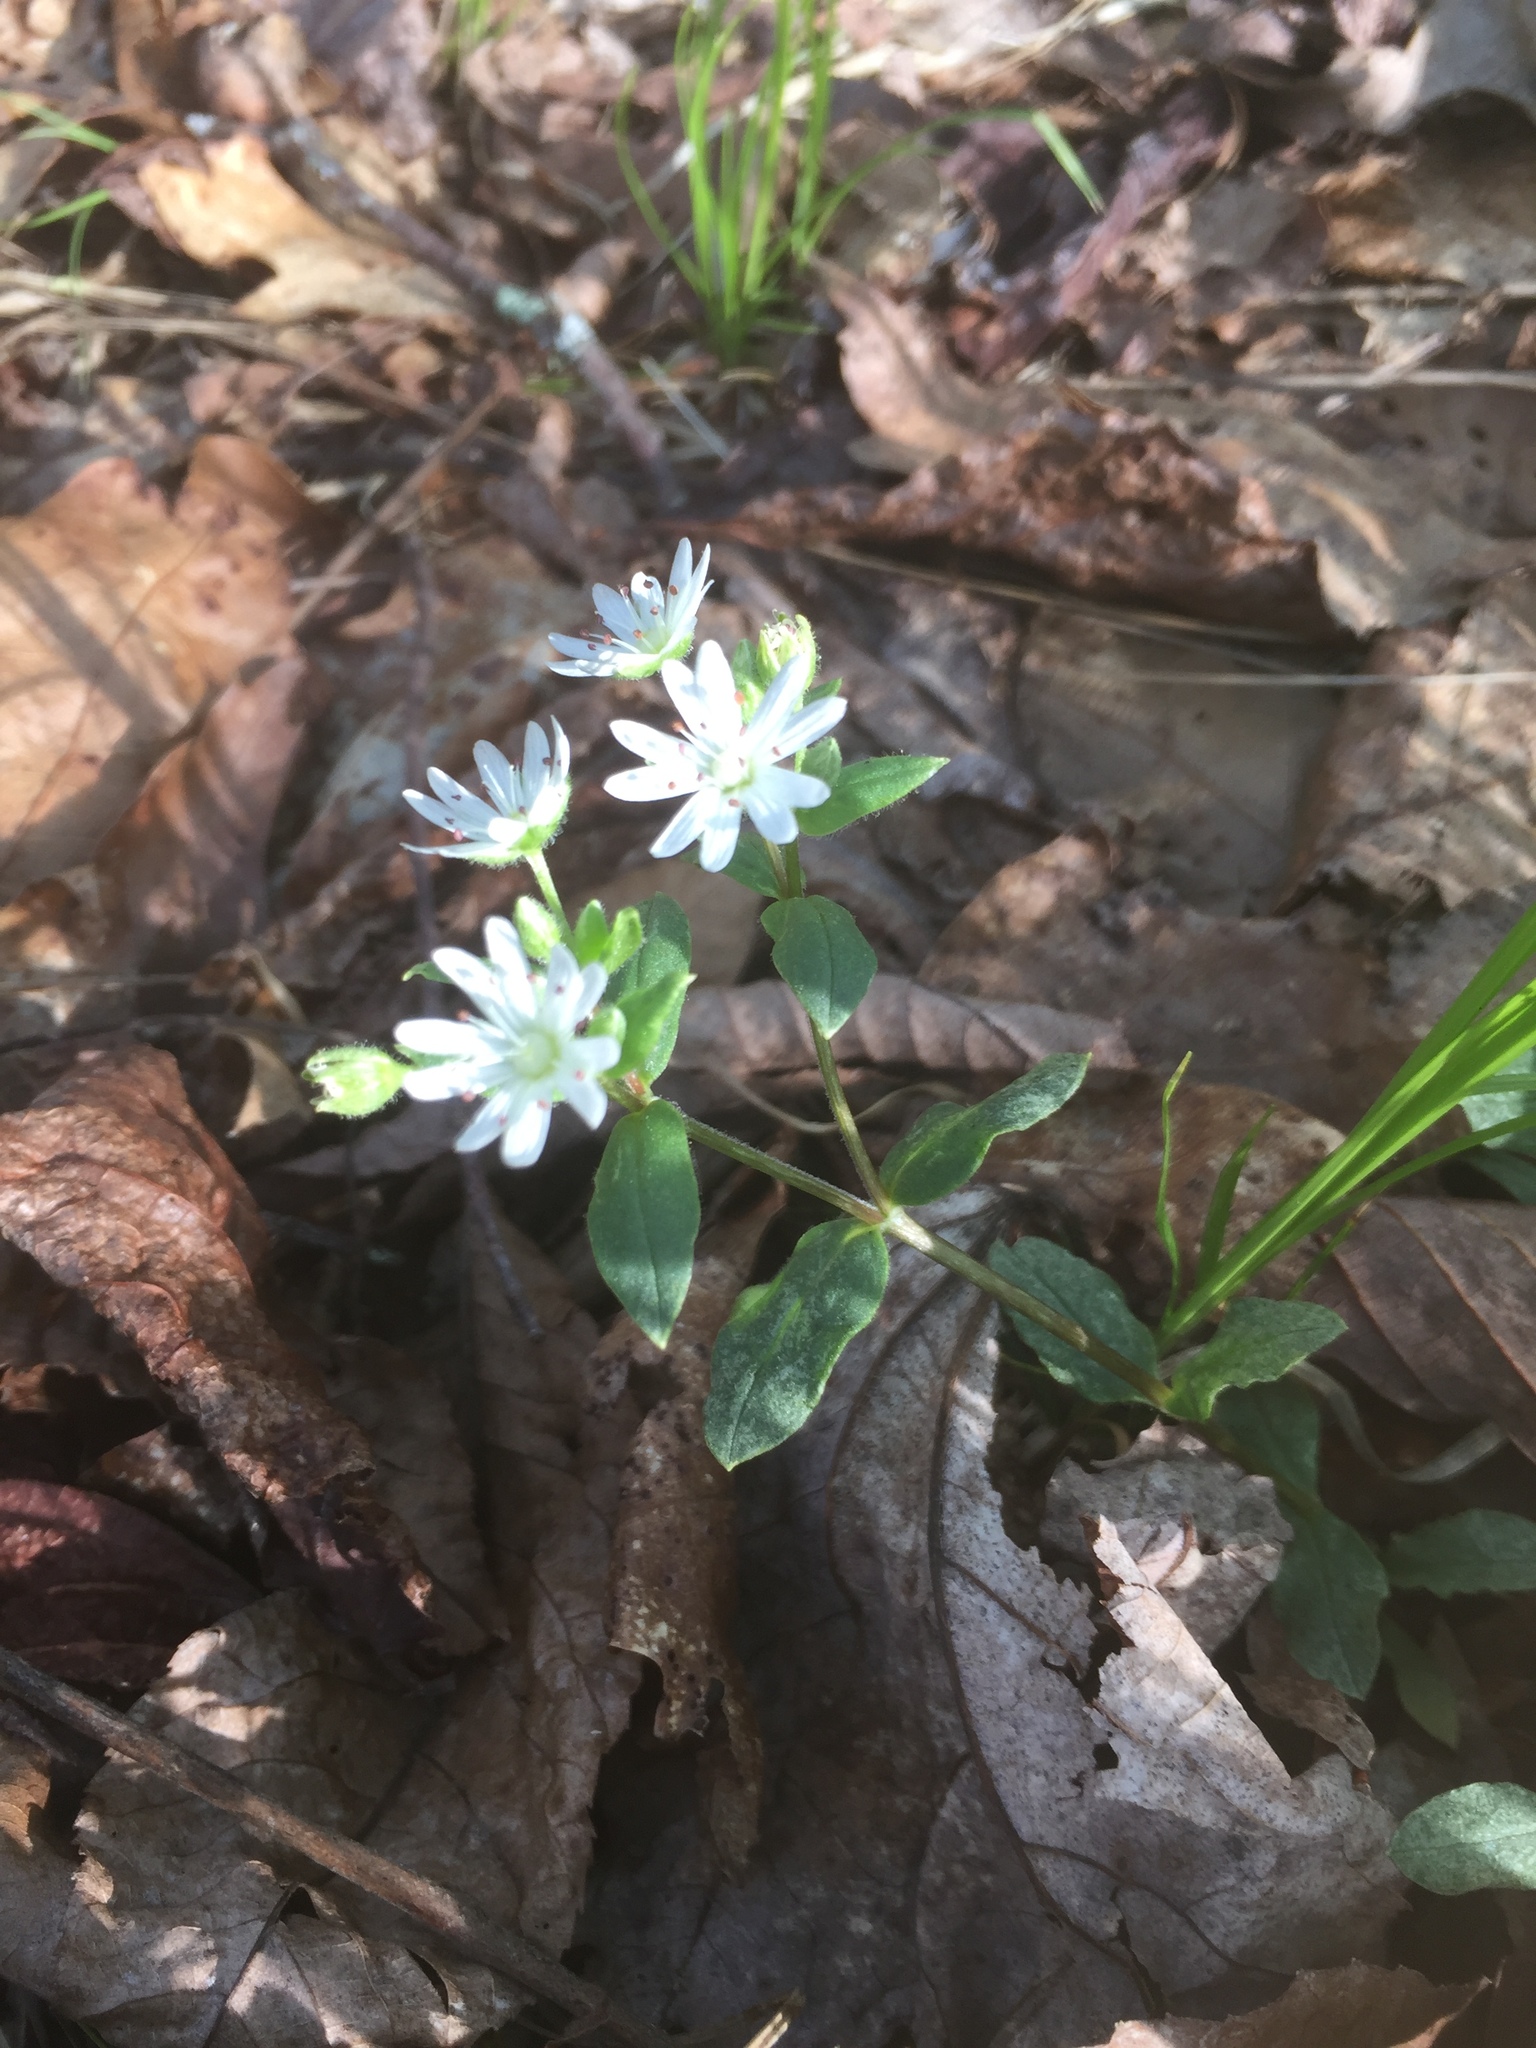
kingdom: Plantae
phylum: Tracheophyta
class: Magnoliopsida
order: Caryophyllales
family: Caryophyllaceae
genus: Stellaria
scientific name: Stellaria pubera
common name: Star chickweed
